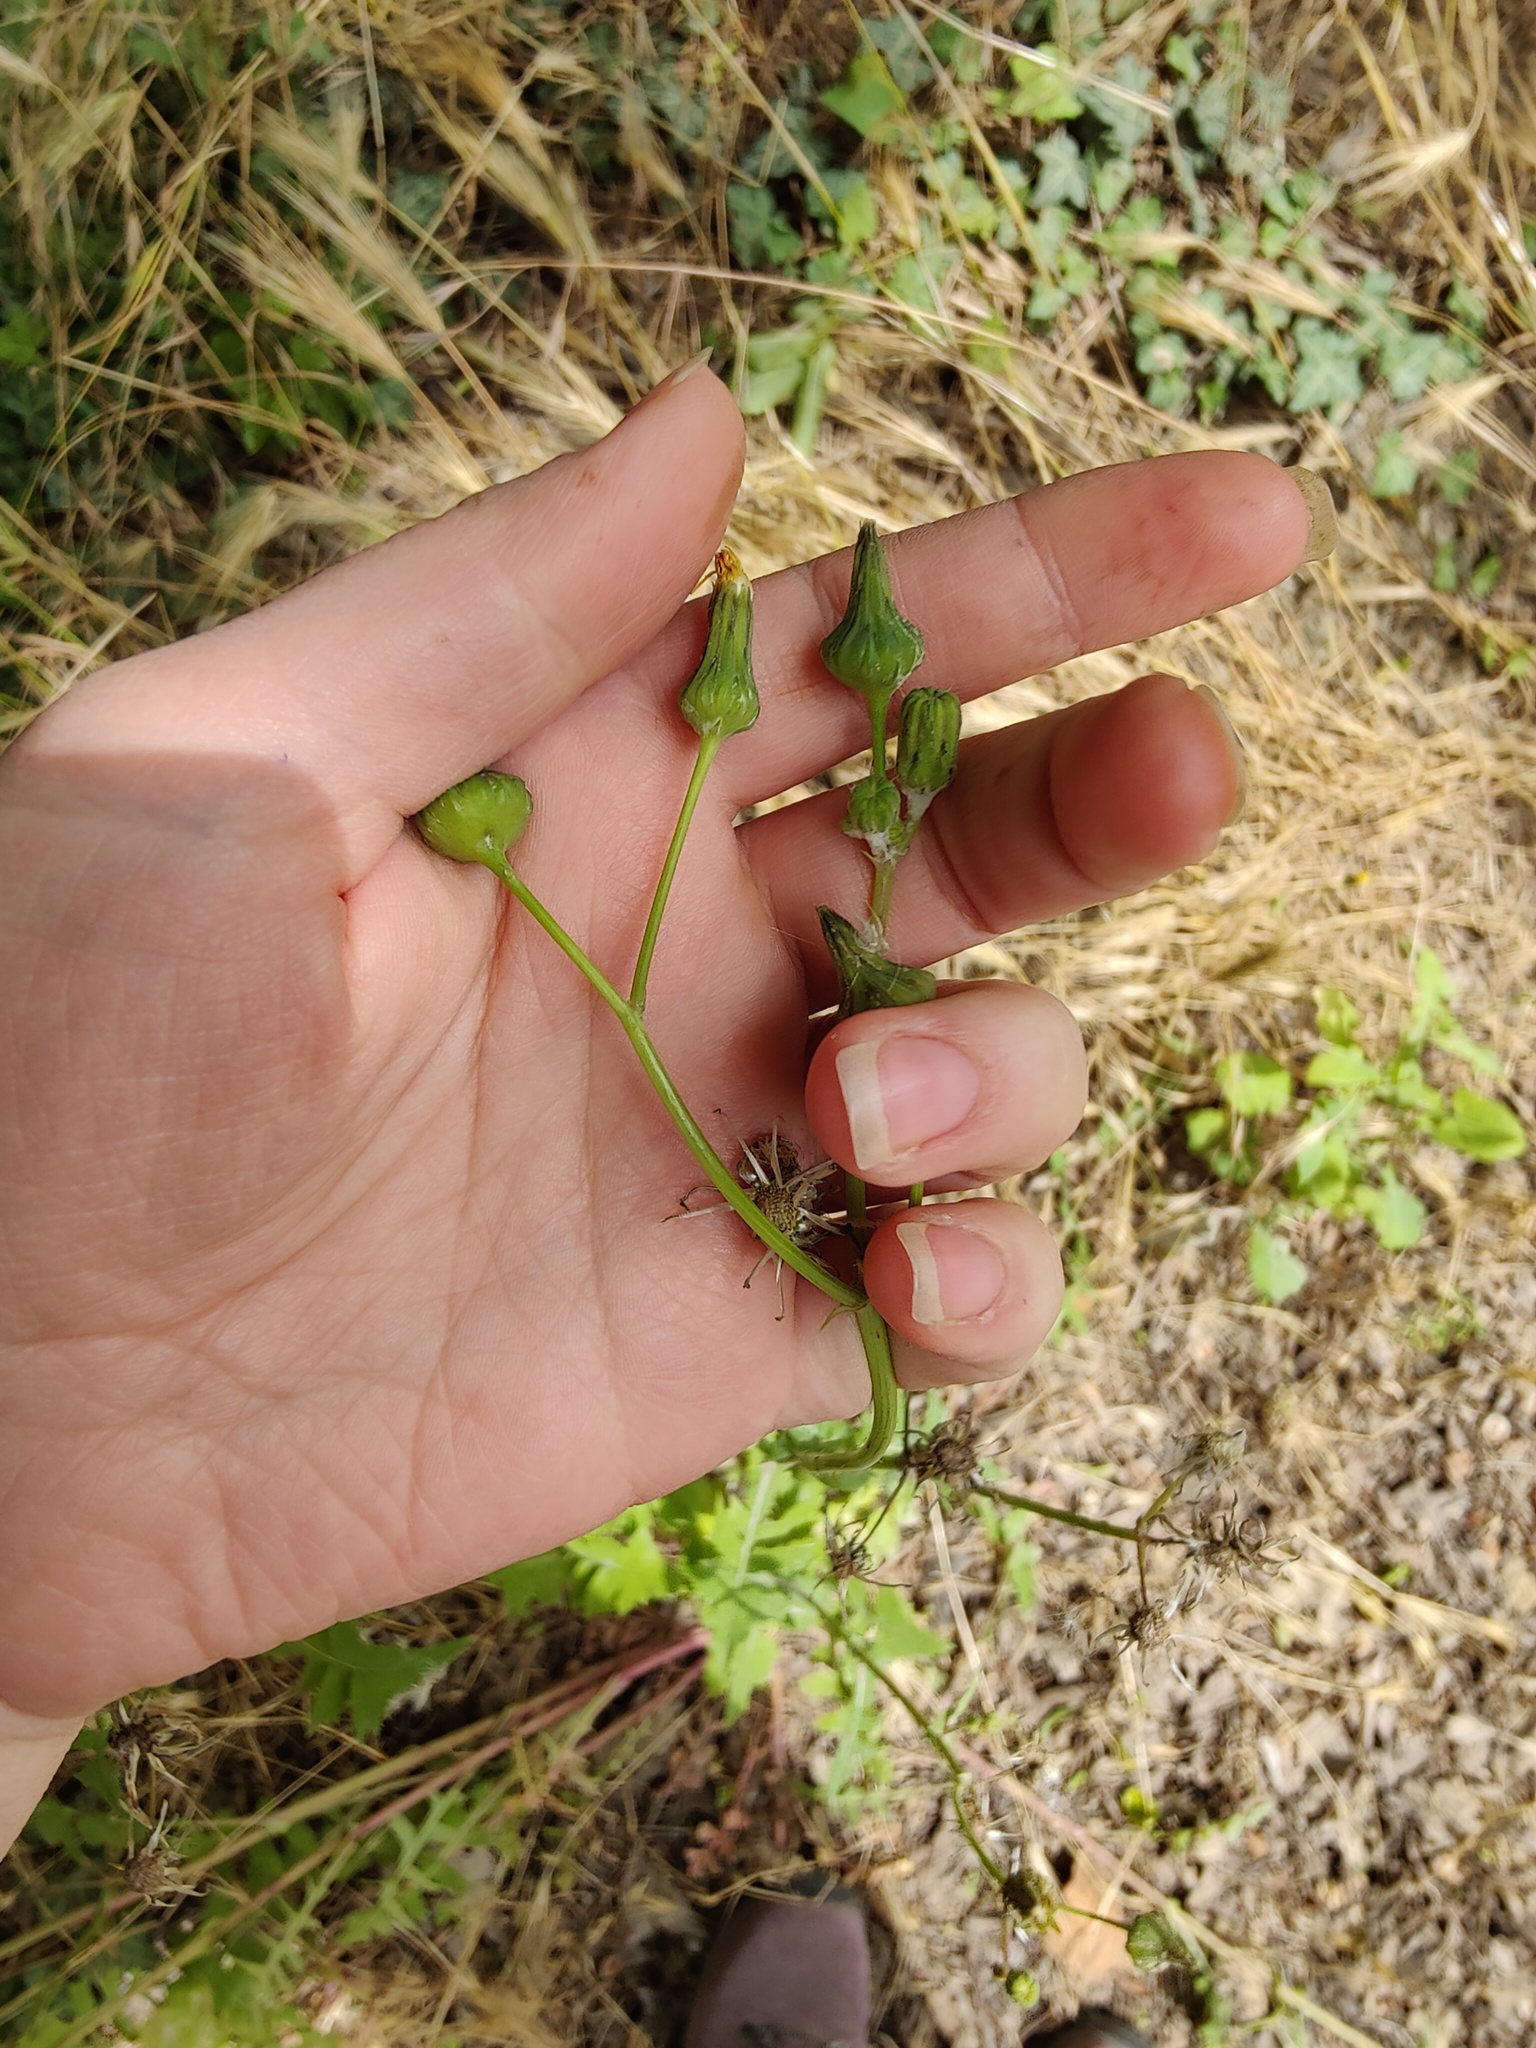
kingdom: Plantae
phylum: Tracheophyta
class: Magnoliopsida
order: Asterales
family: Asteraceae
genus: Sonchus
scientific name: Sonchus oleraceus
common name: Common sowthistle
